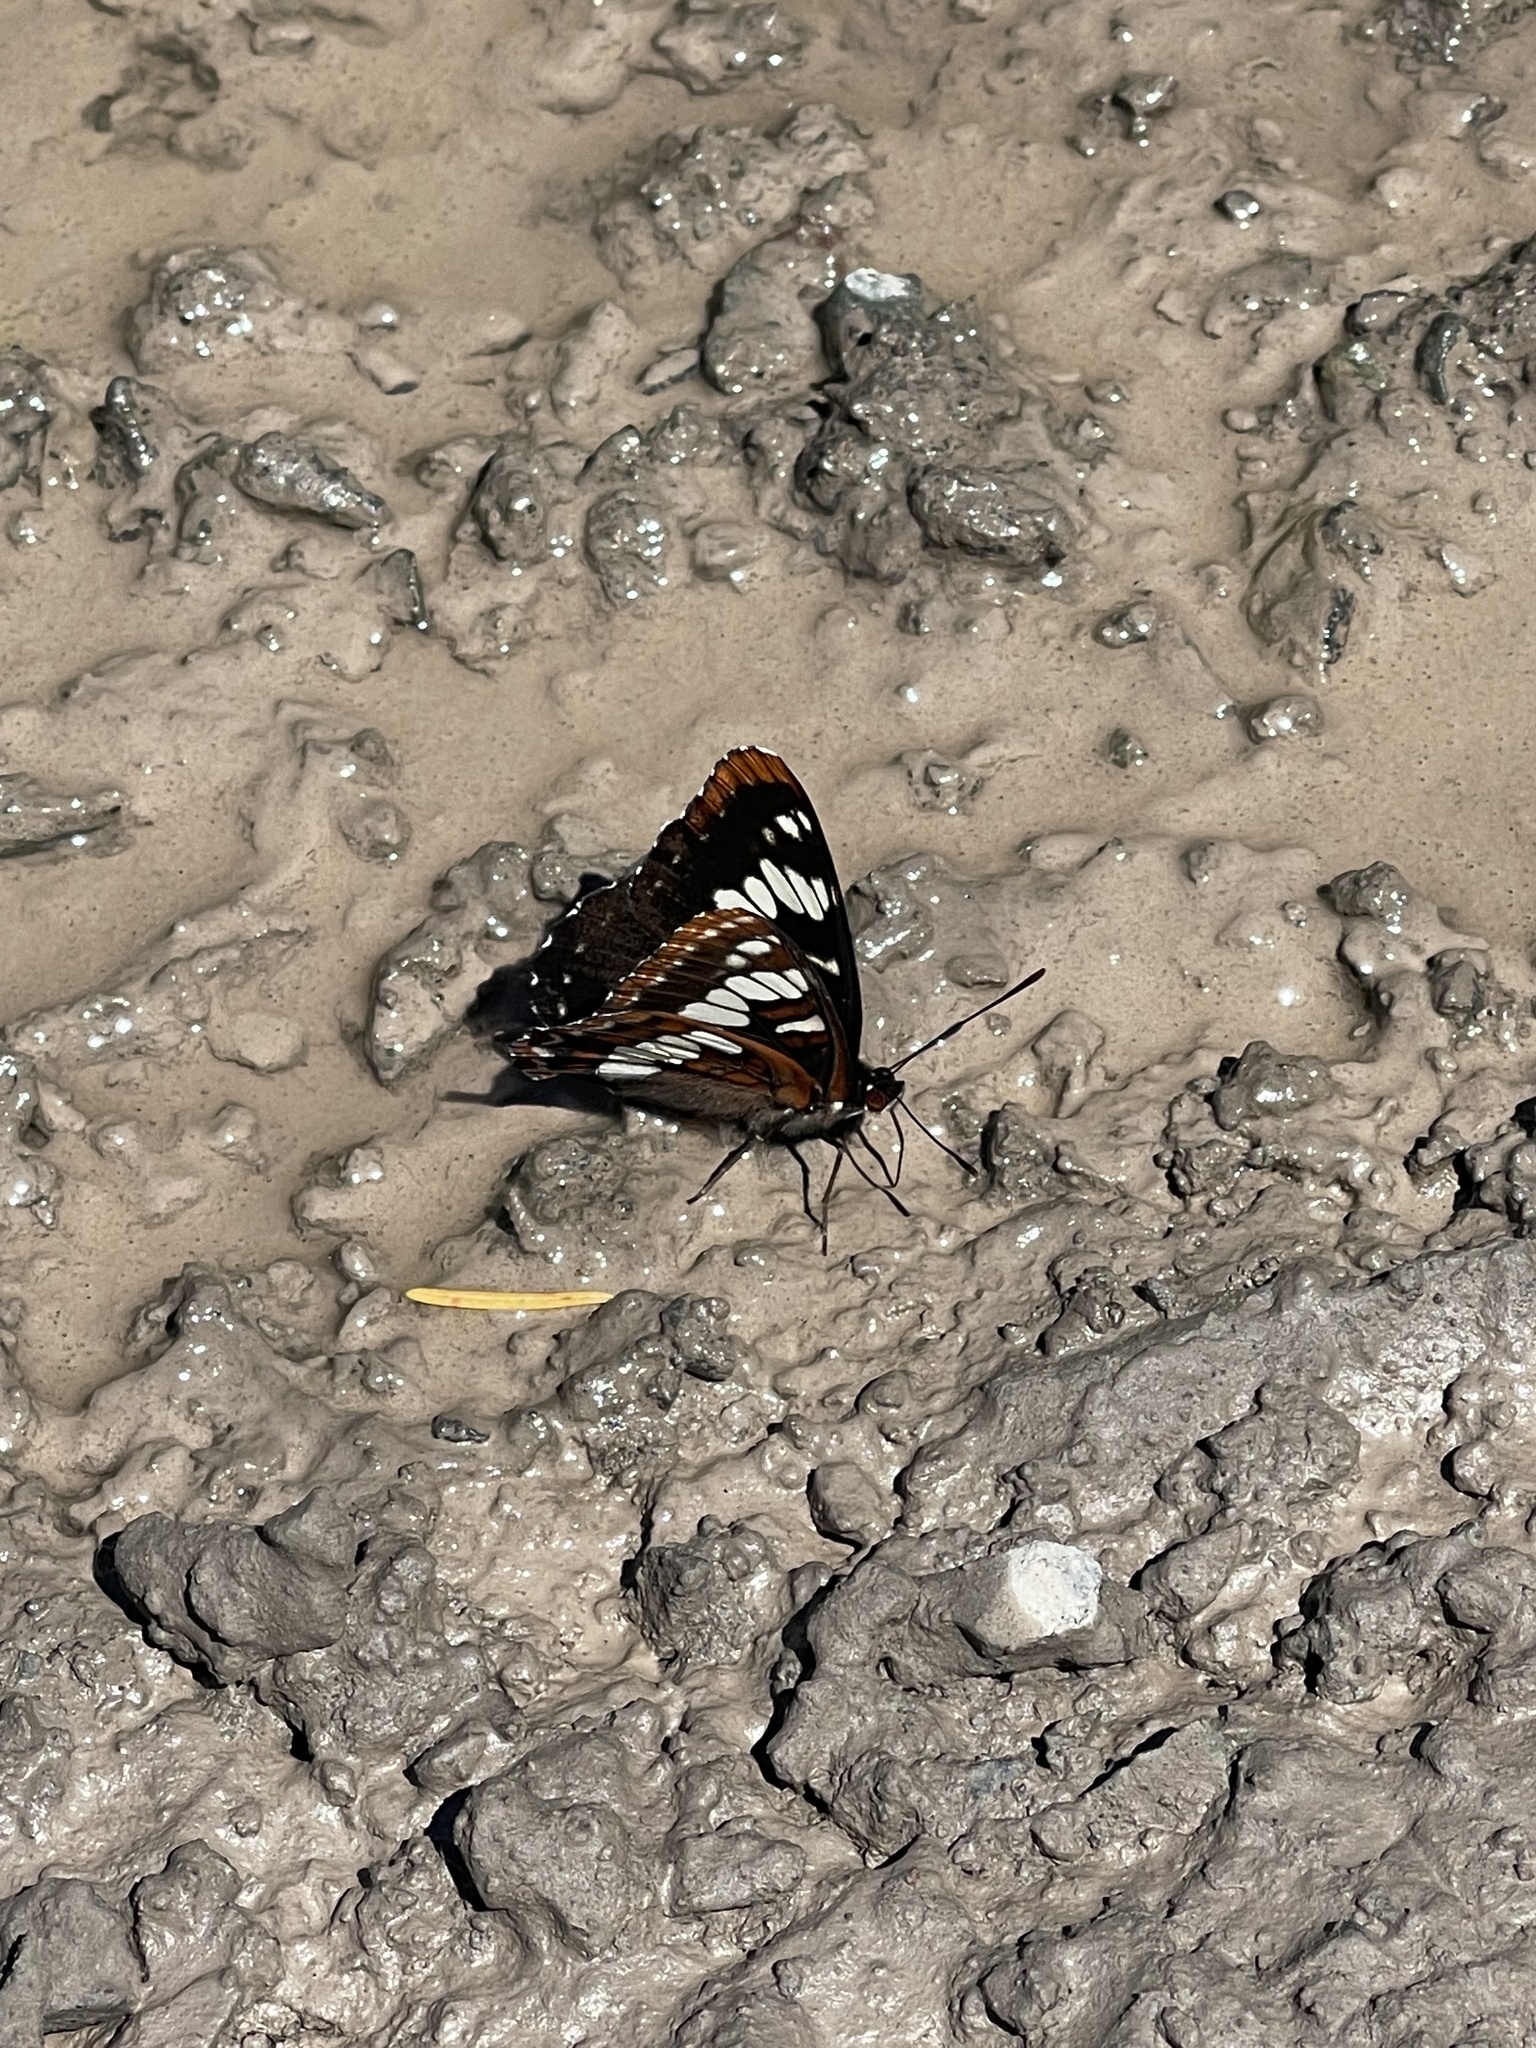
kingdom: Animalia
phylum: Arthropoda
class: Insecta
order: Lepidoptera
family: Nymphalidae
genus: Limenitis
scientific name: Limenitis lorquini
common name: Lorquin's admiral
